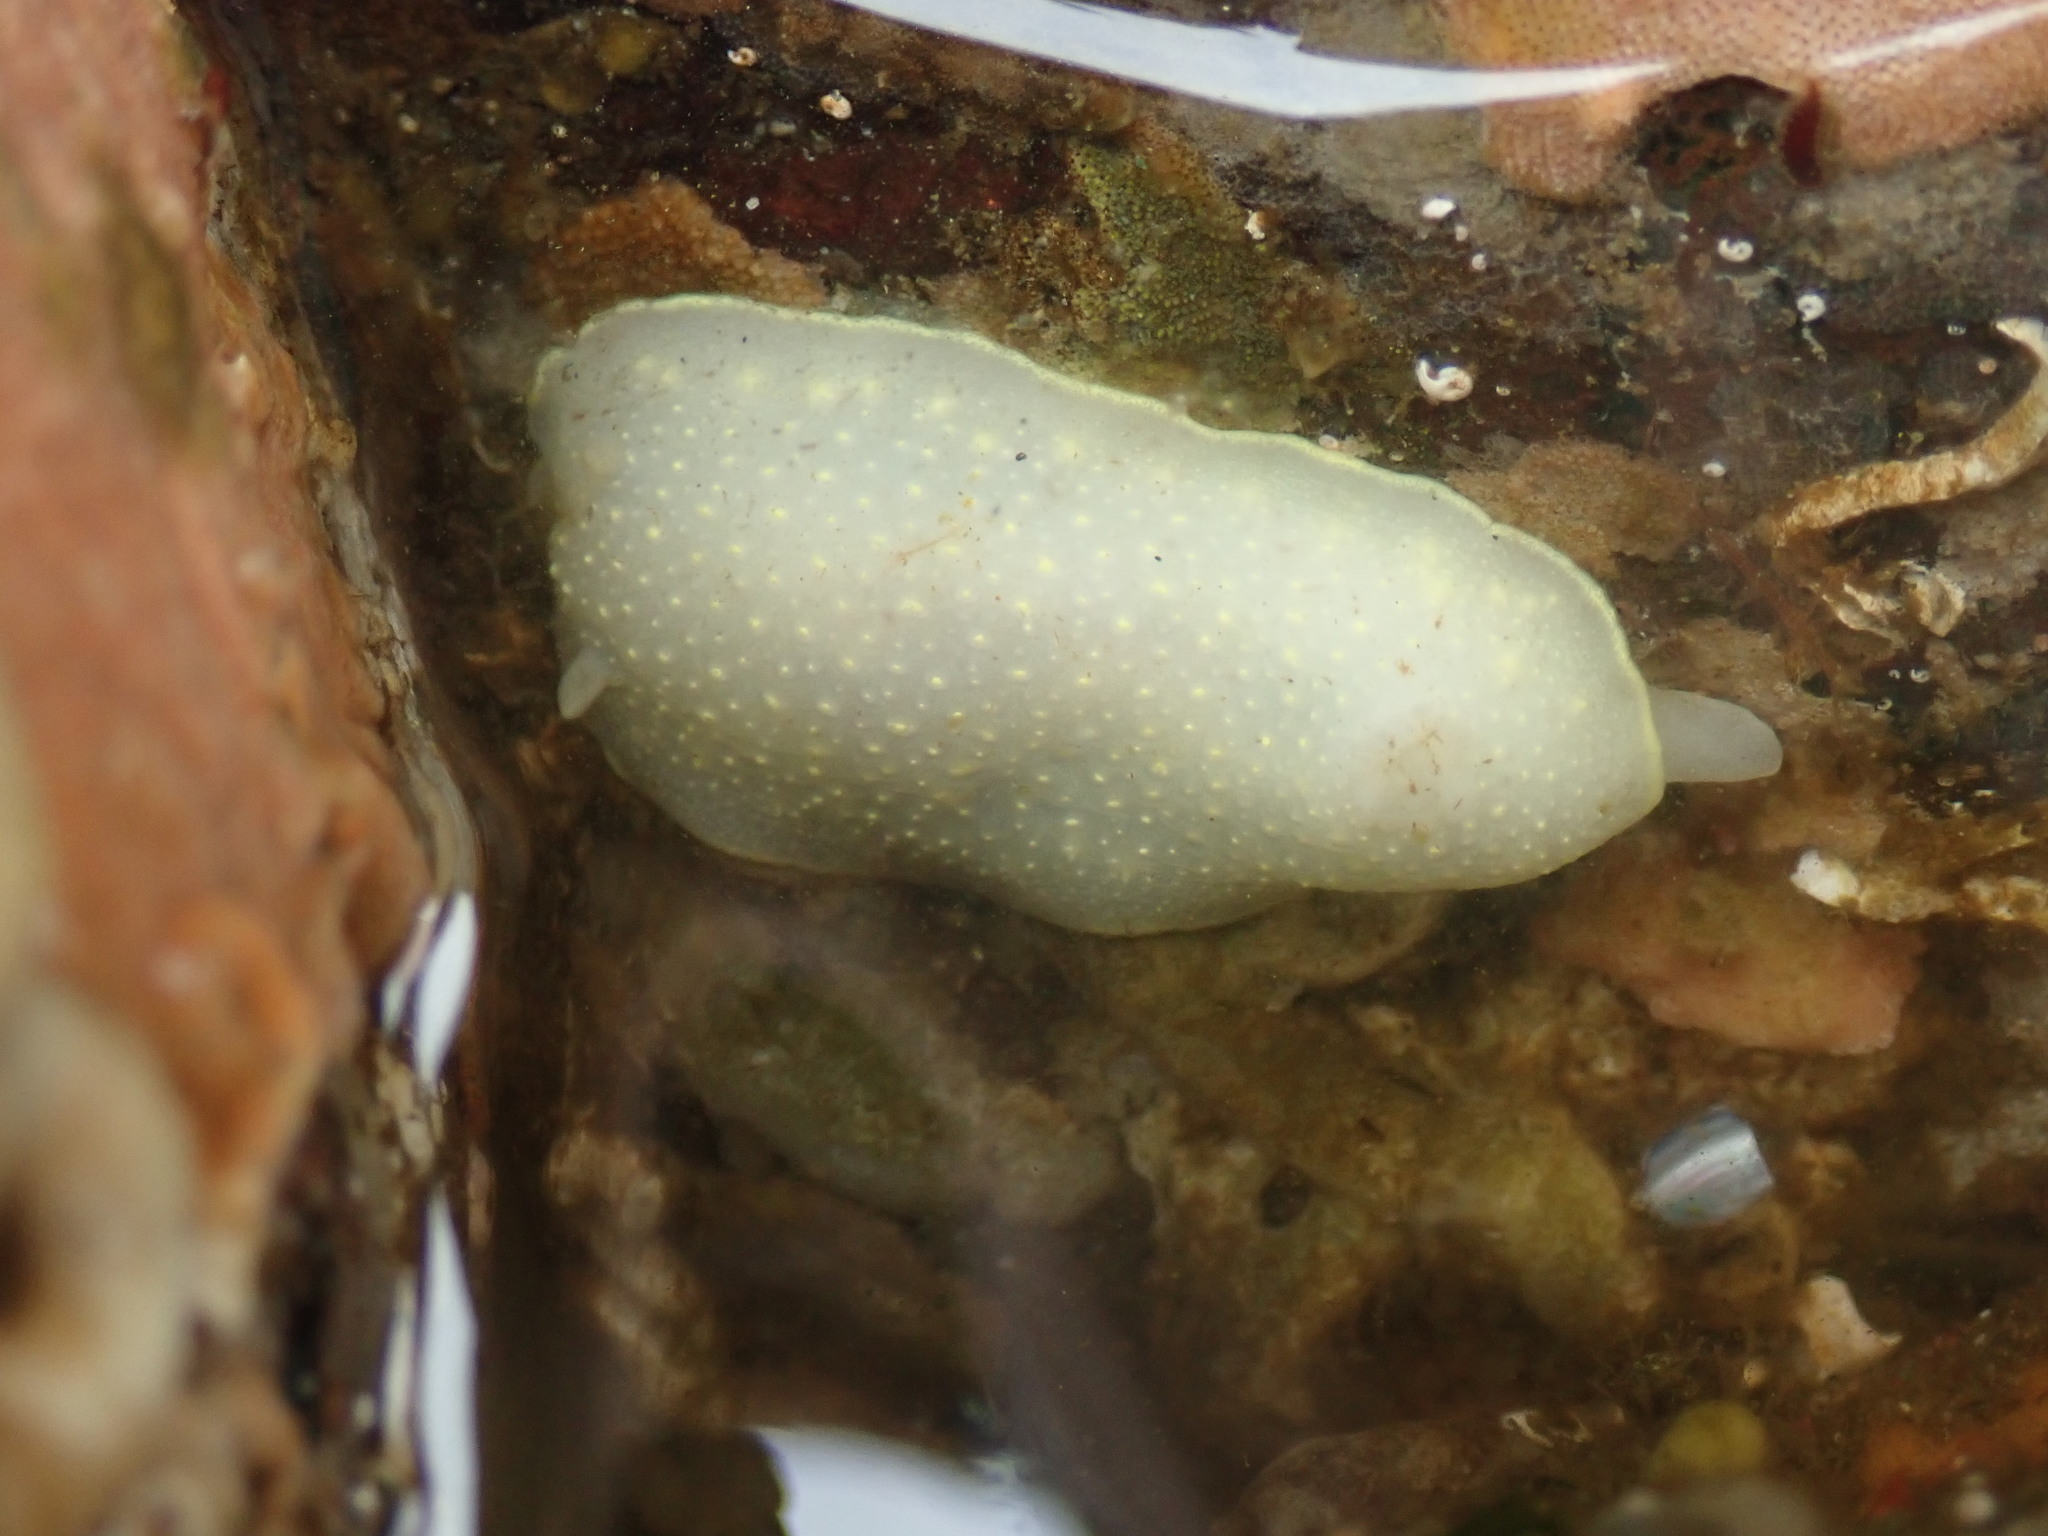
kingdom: Animalia
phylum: Mollusca
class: Gastropoda
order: Nudibranchia
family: Cadlinidae
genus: Cadlina
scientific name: Cadlina luteomarginata
